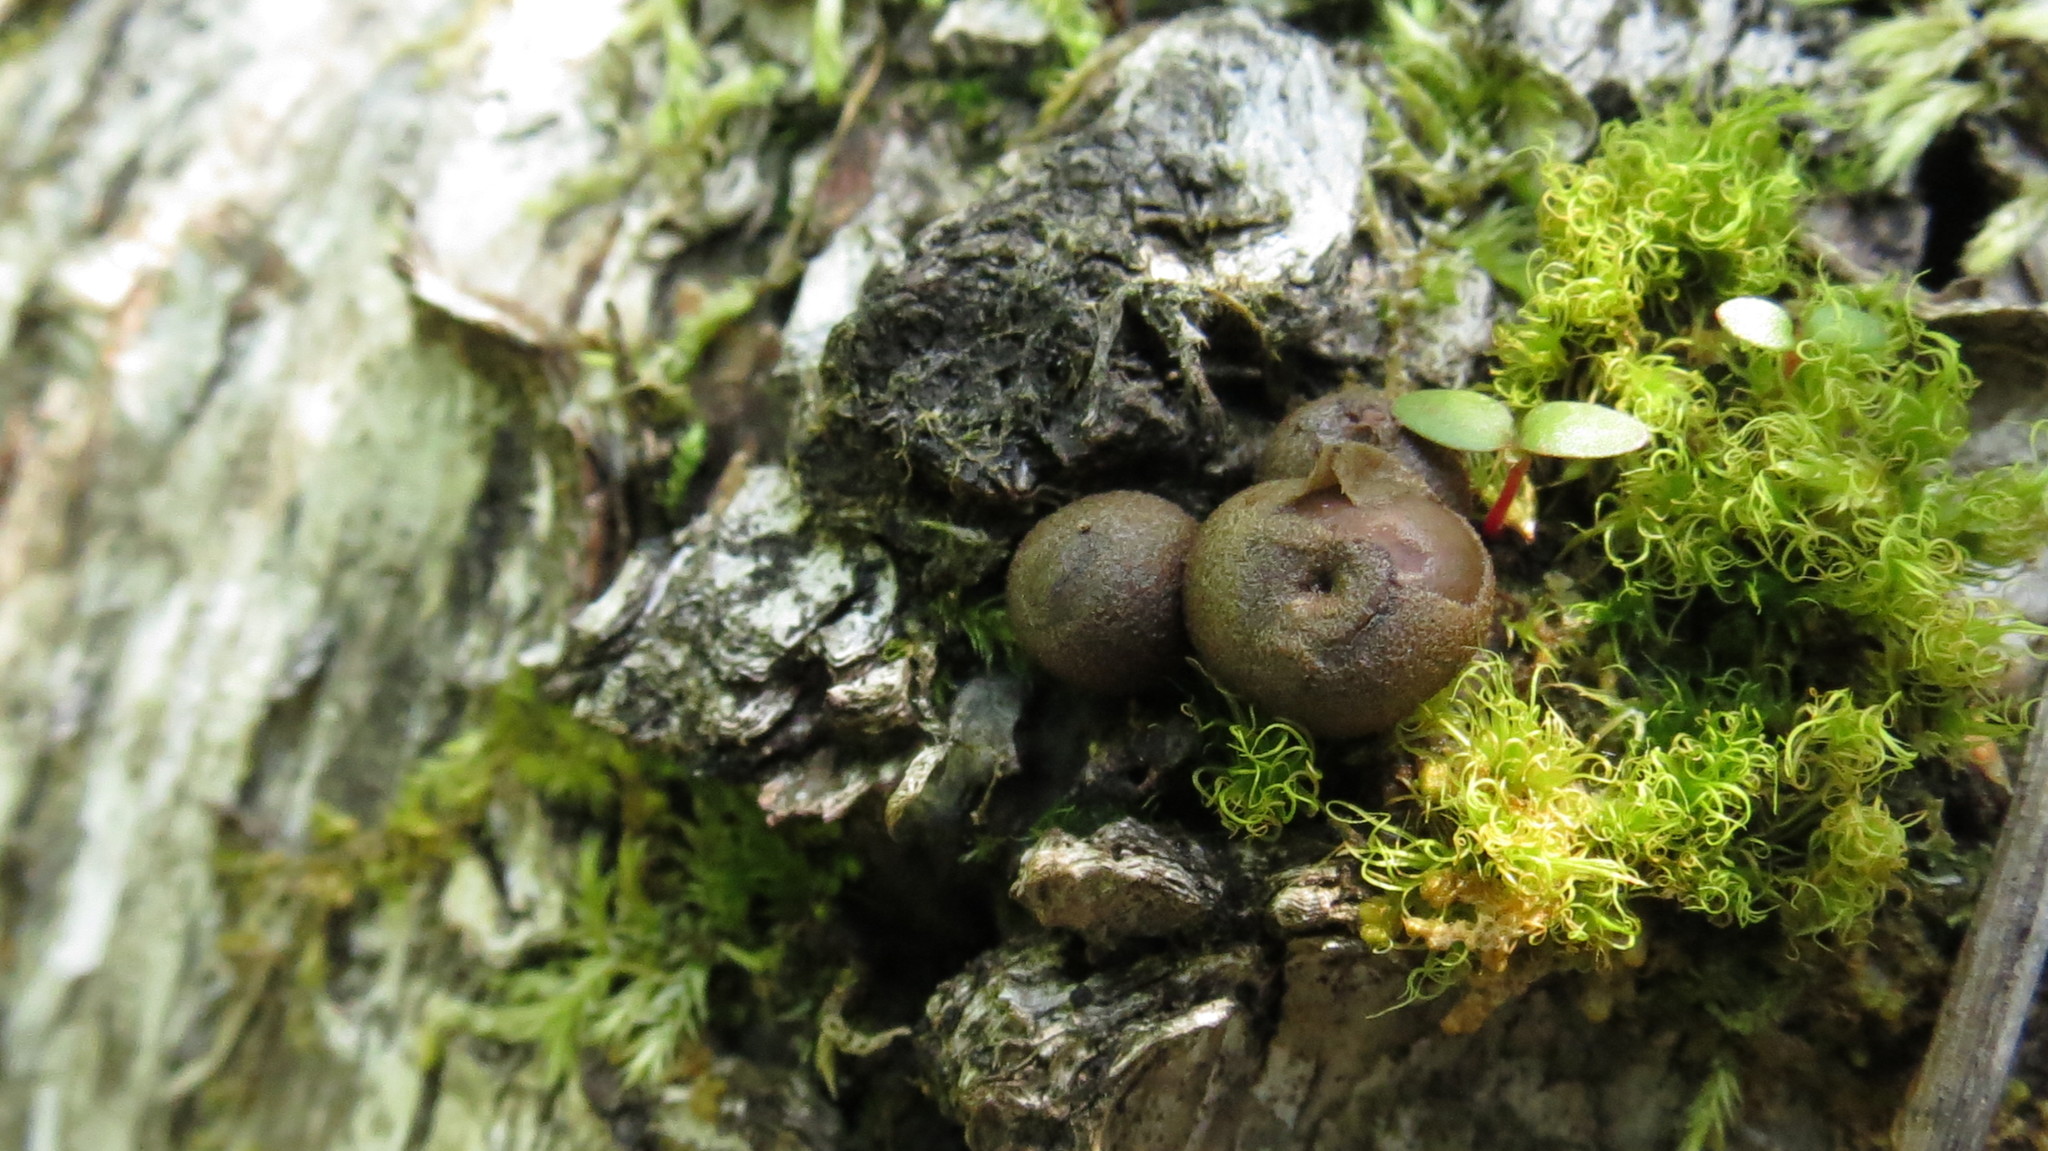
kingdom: Protozoa
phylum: Mycetozoa
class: Myxomycetes
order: Cribrariales
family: Tubiferaceae
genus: Lycogala
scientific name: Lycogala epidendrum
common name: Wolf's milk
